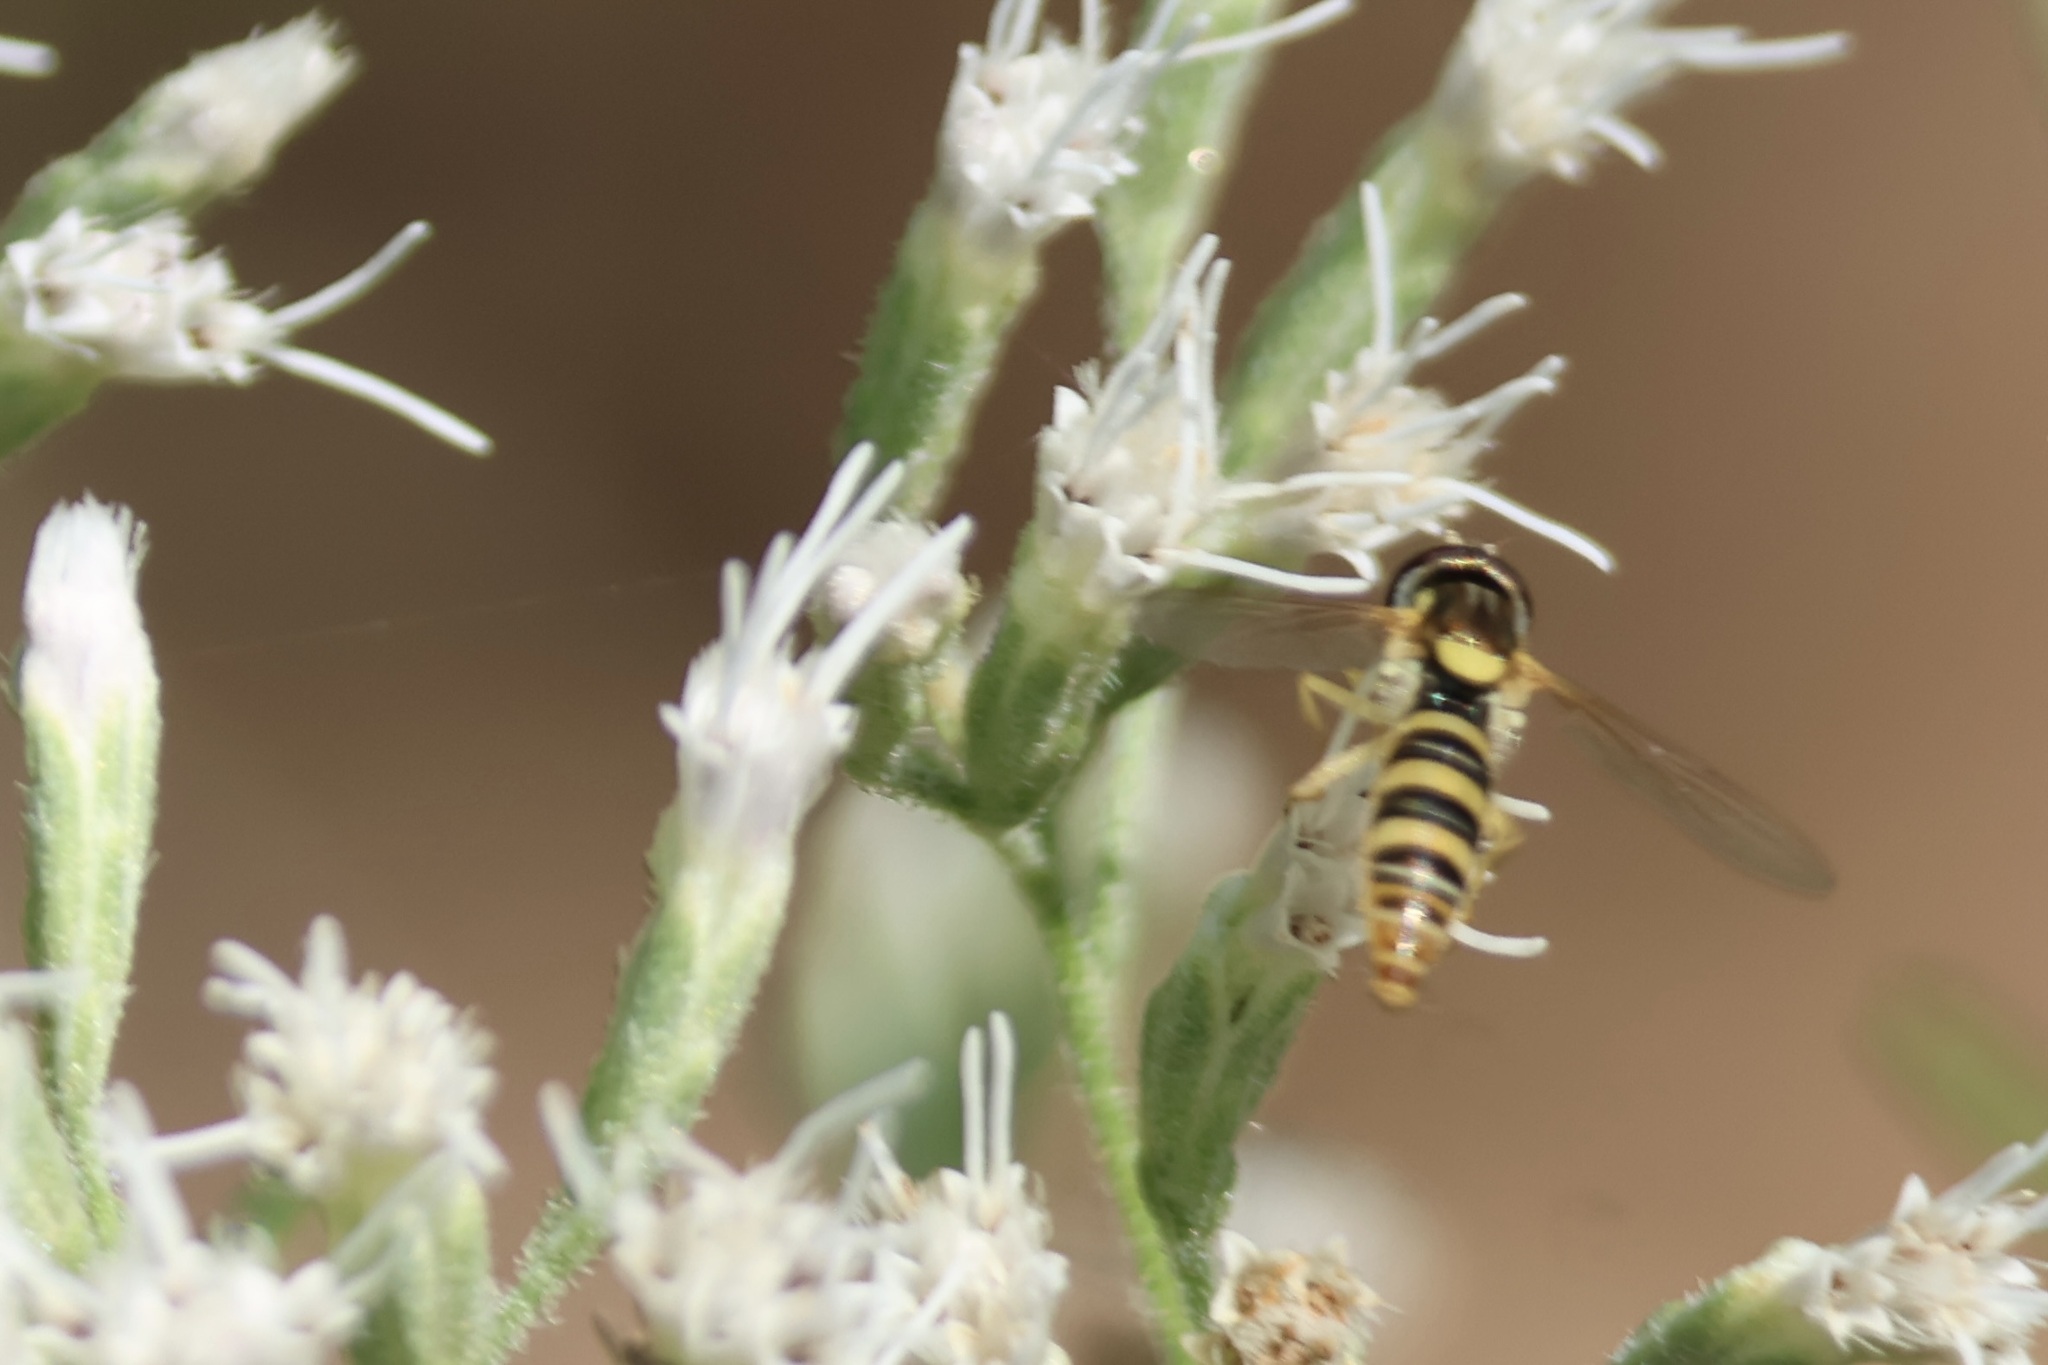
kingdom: Animalia
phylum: Arthropoda
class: Insecta
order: Diptera
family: Syrphidae
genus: Sphaerophoria
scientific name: Sphaerophoria contigua
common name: Tufted globetail
